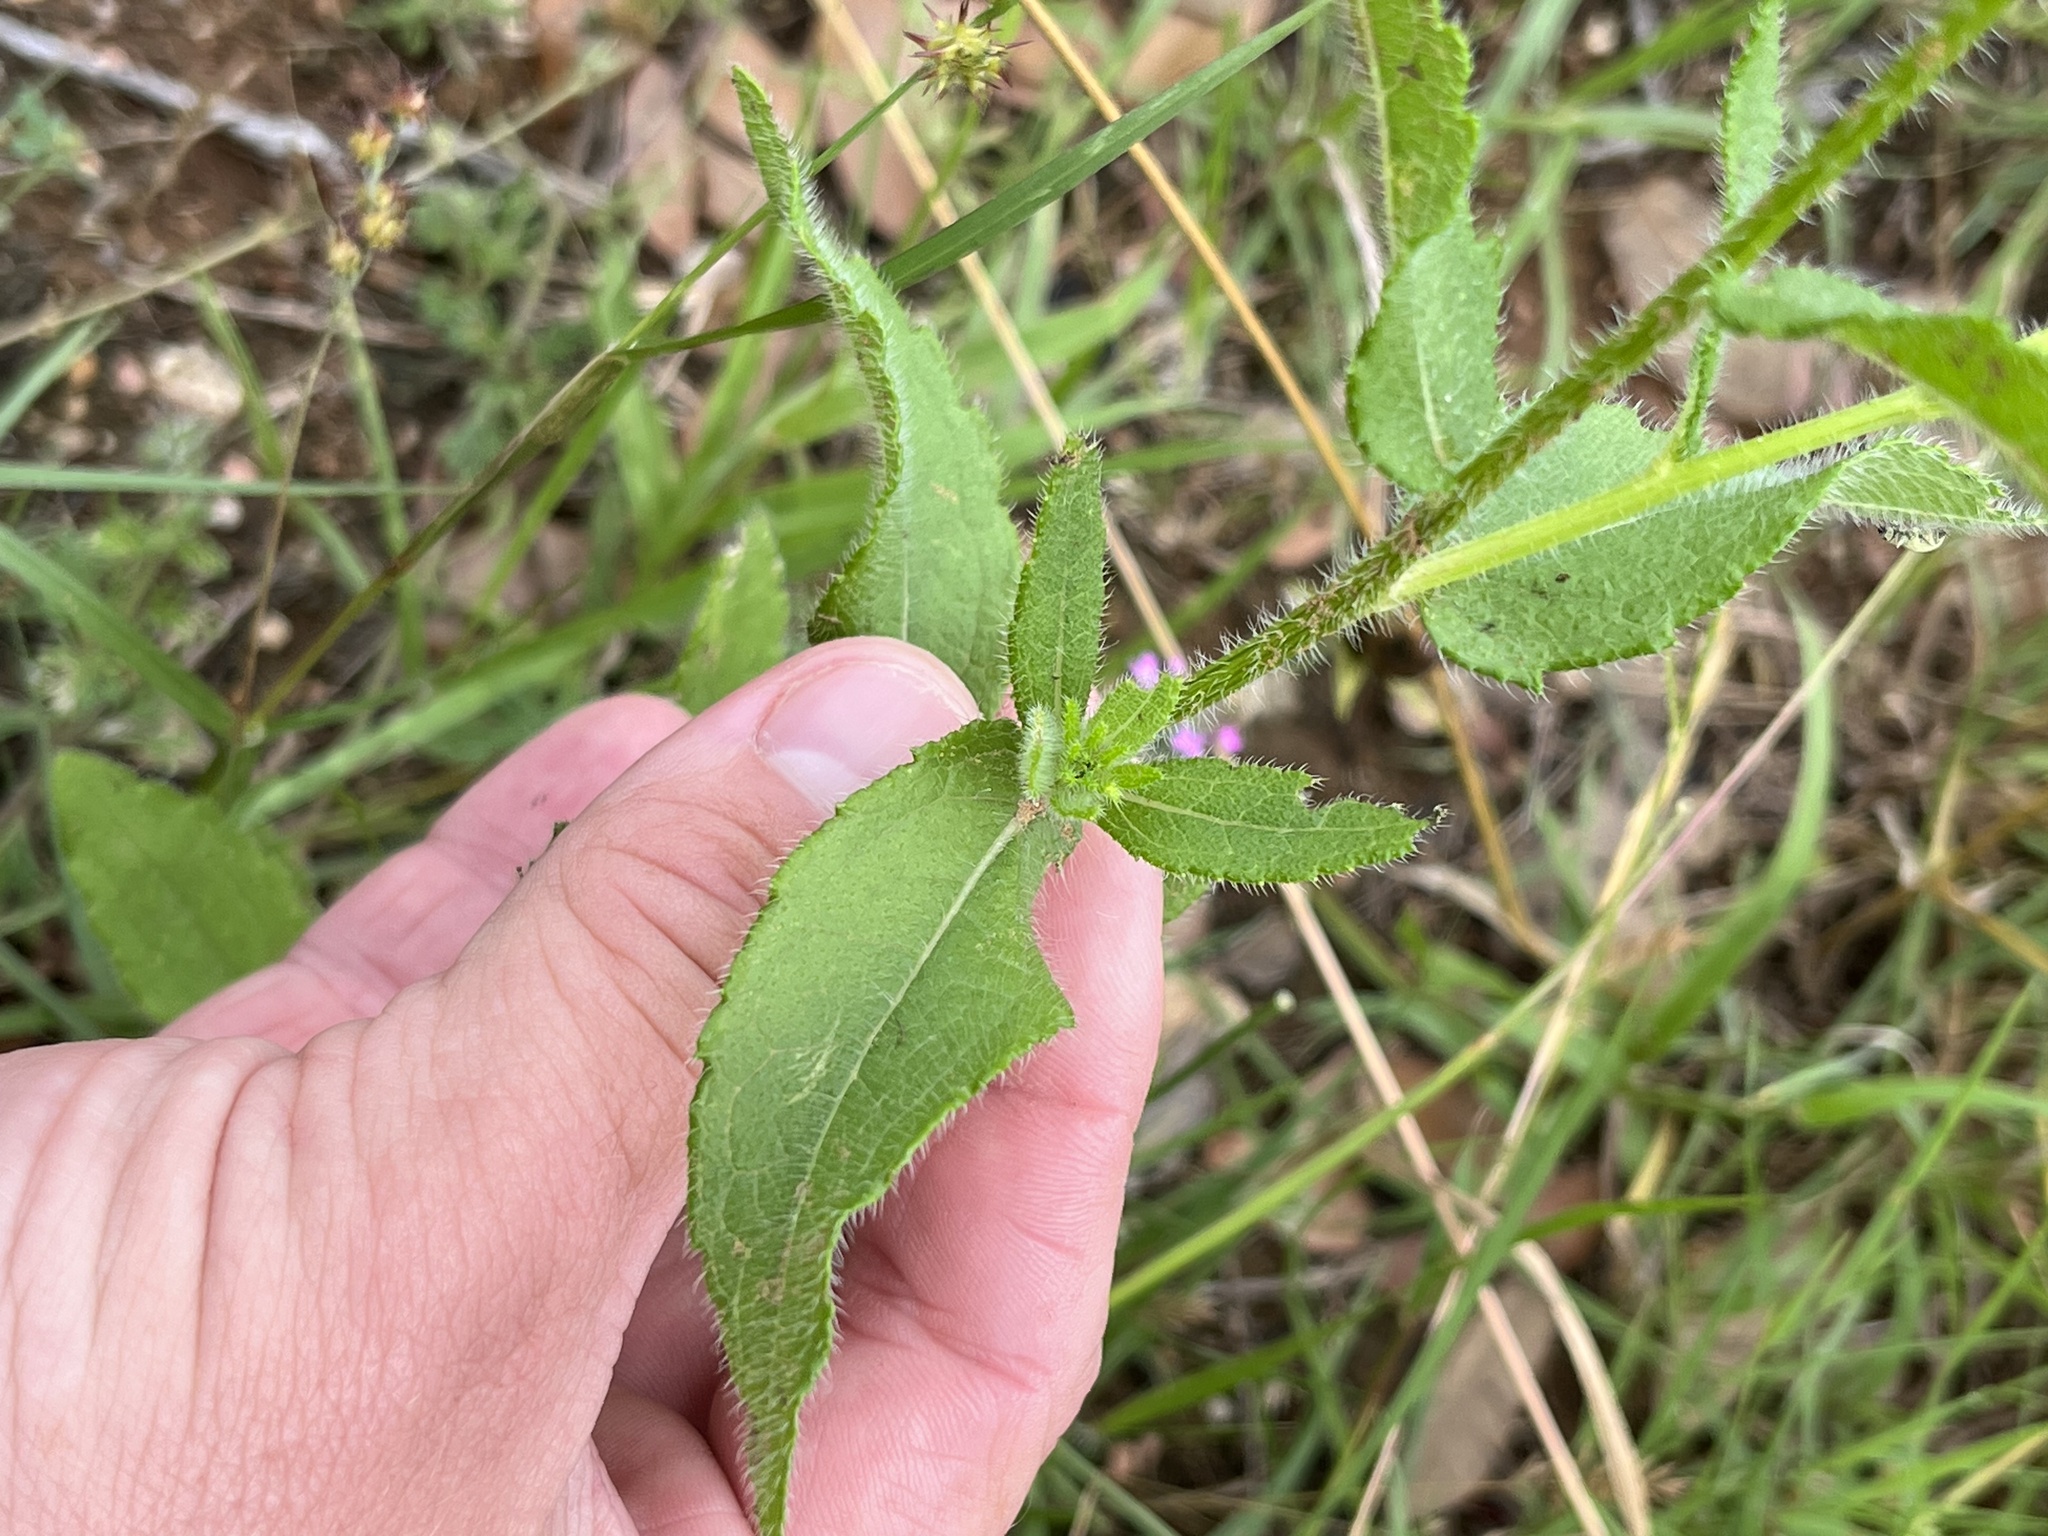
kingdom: Plantae
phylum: Tracheophyta
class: Magnoliopsida
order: Asterales
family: Asteraceae
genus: Rudbeckia
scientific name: Rudbeckia hirta
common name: Black-eyed-susan
